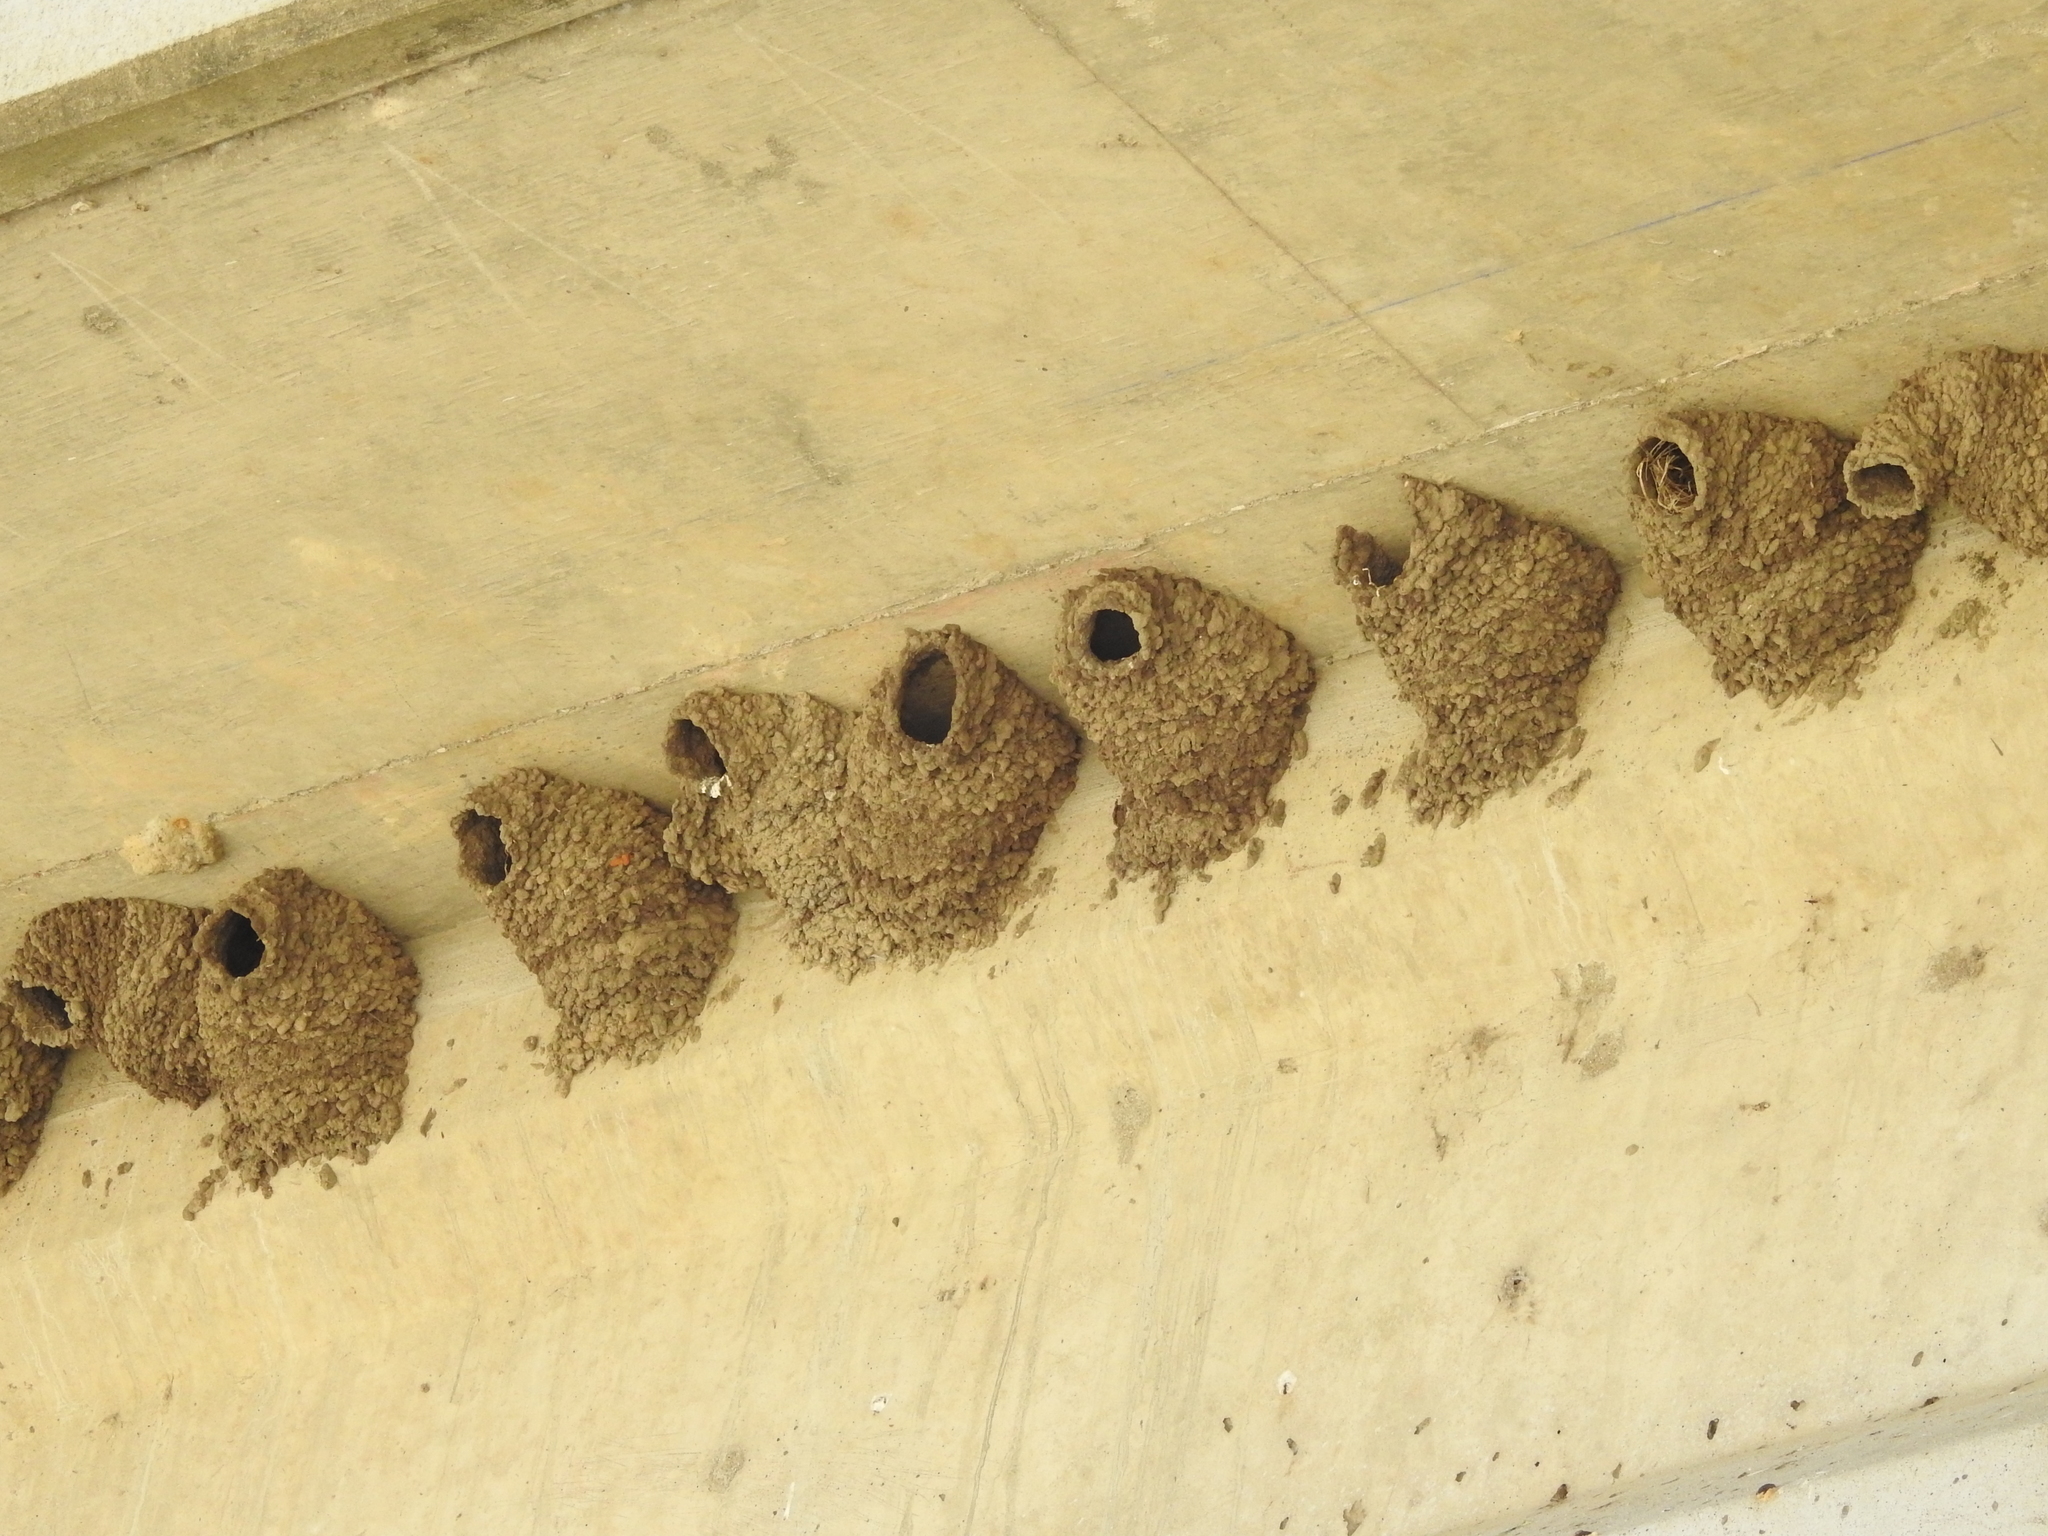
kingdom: Animalia
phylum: Chordata
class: Aves
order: Passeriformes
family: Hirundinidae
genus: Petrochelidon
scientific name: Petrochelidon pyrrhonota
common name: American cliff swallow
